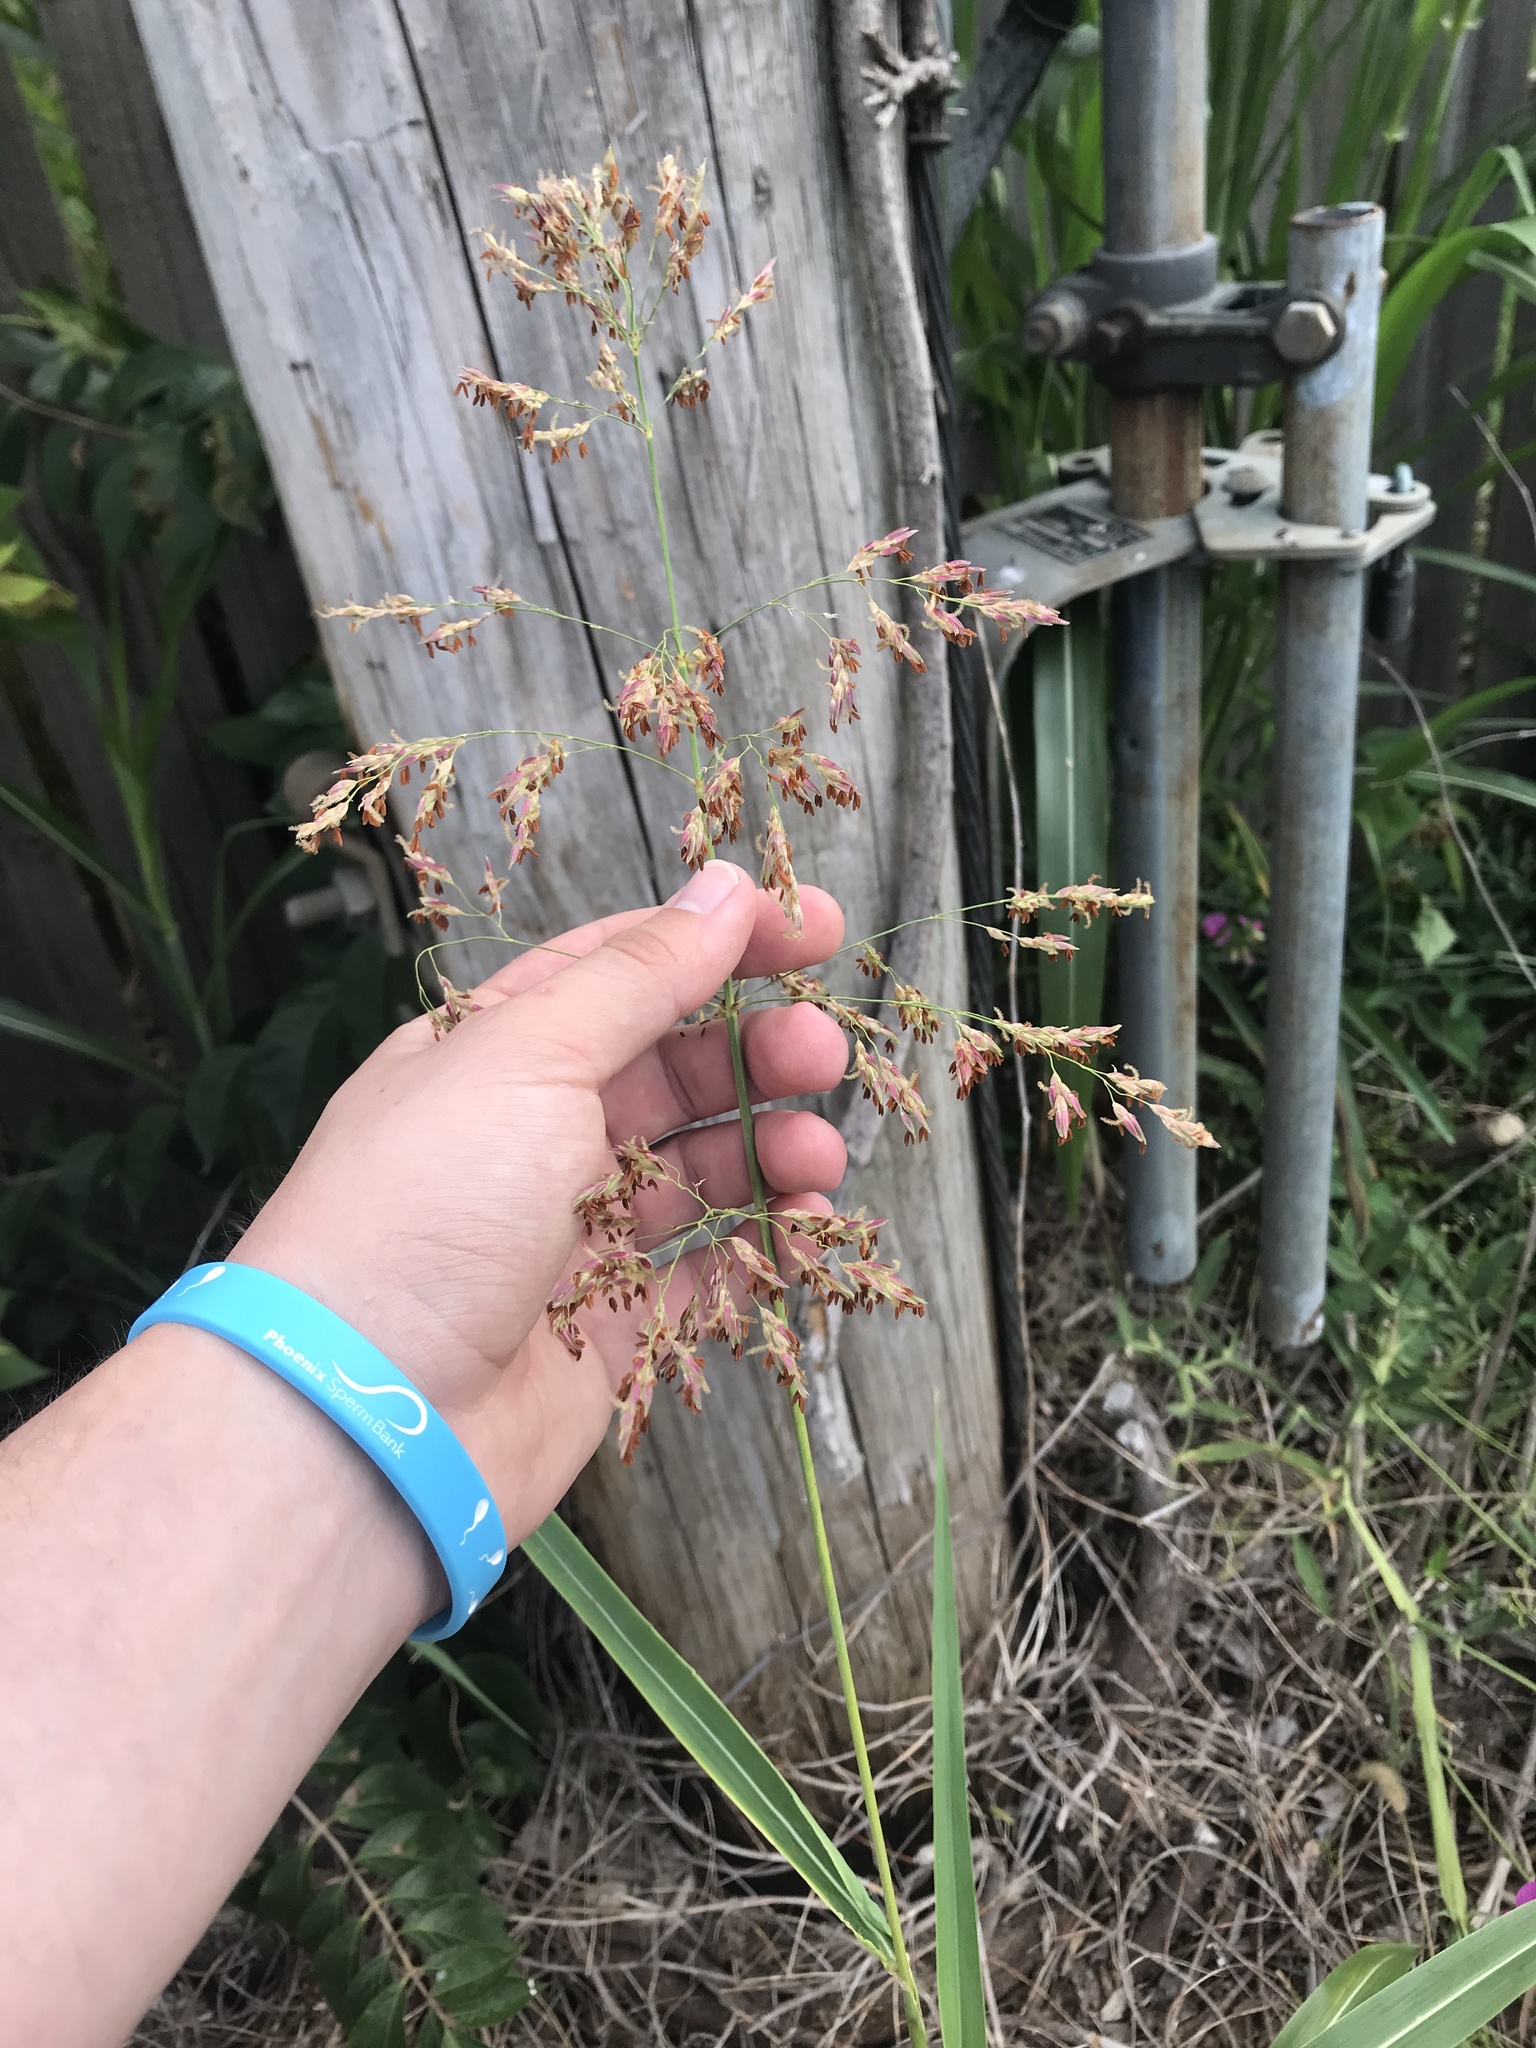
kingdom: Plantae
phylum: Tracheophyta
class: Liliopsida
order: Poales
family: Poaceae
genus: Sorghum
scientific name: Sorghum halepense
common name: Johnson-grass
